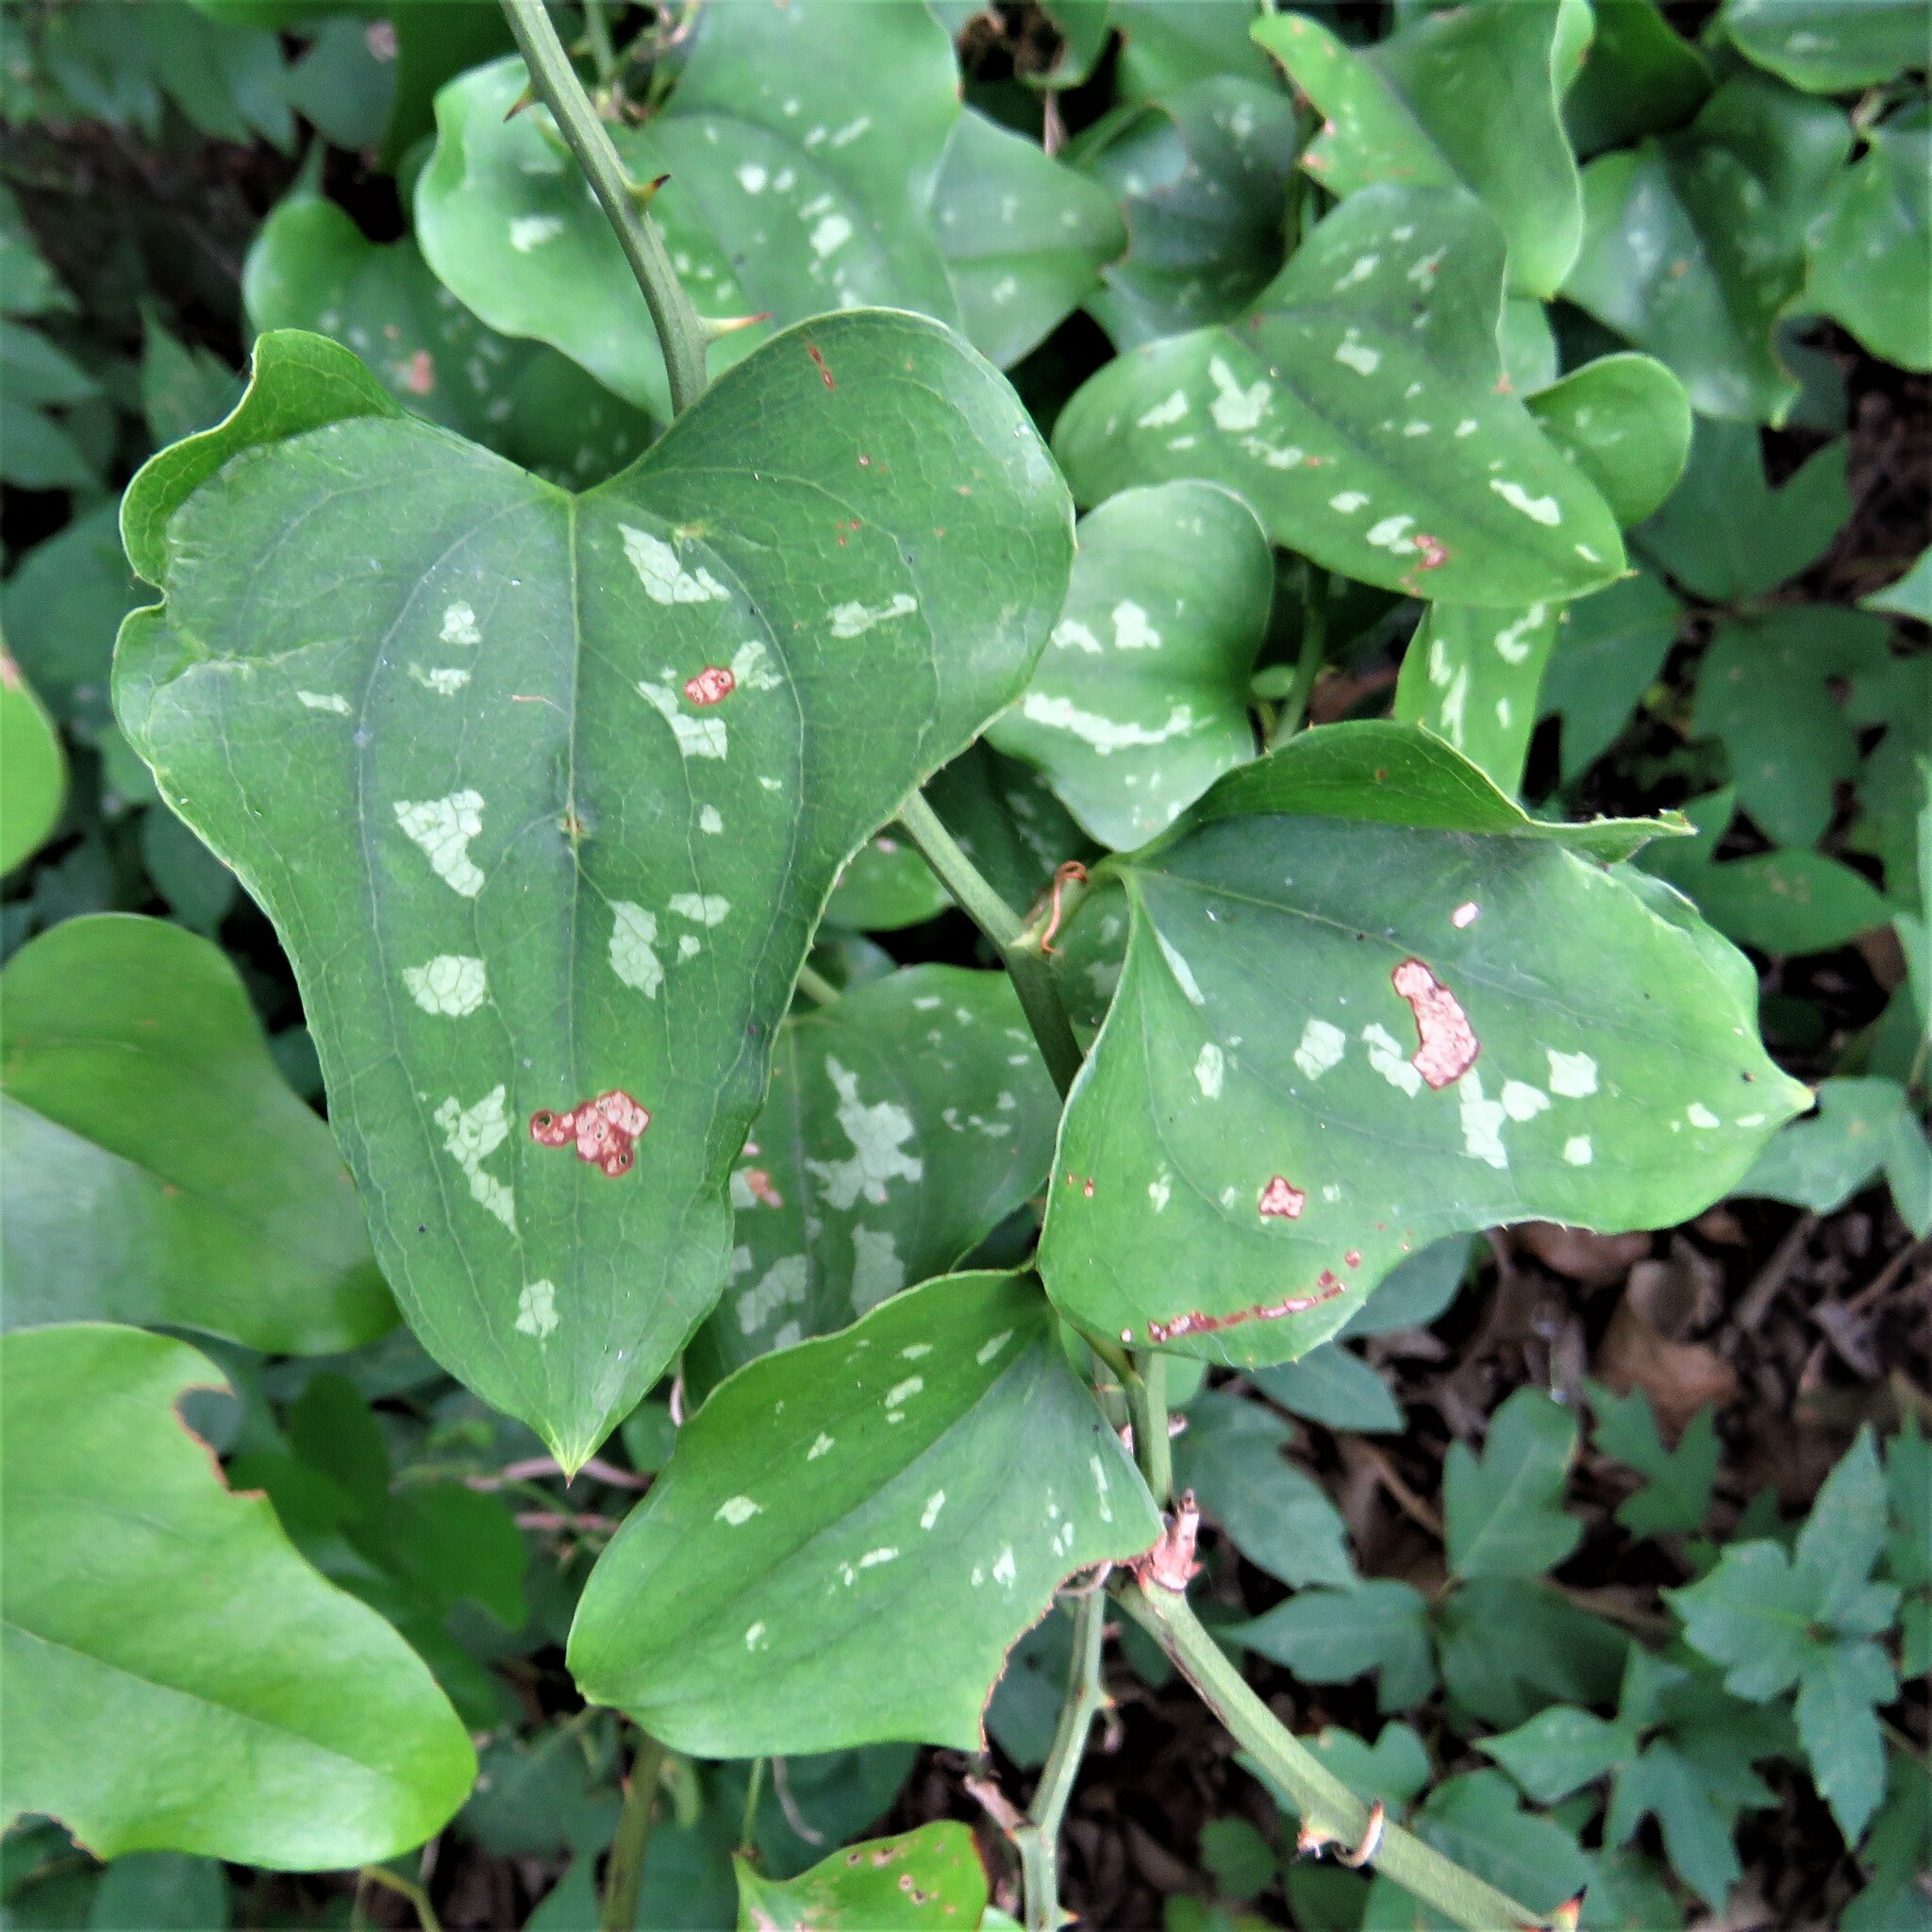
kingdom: Plantae
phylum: Tracheophyta
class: Liliopsida
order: Liliales
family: Smilacaceae
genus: Smilax
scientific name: Smilax bona-nox
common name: Catbrier
